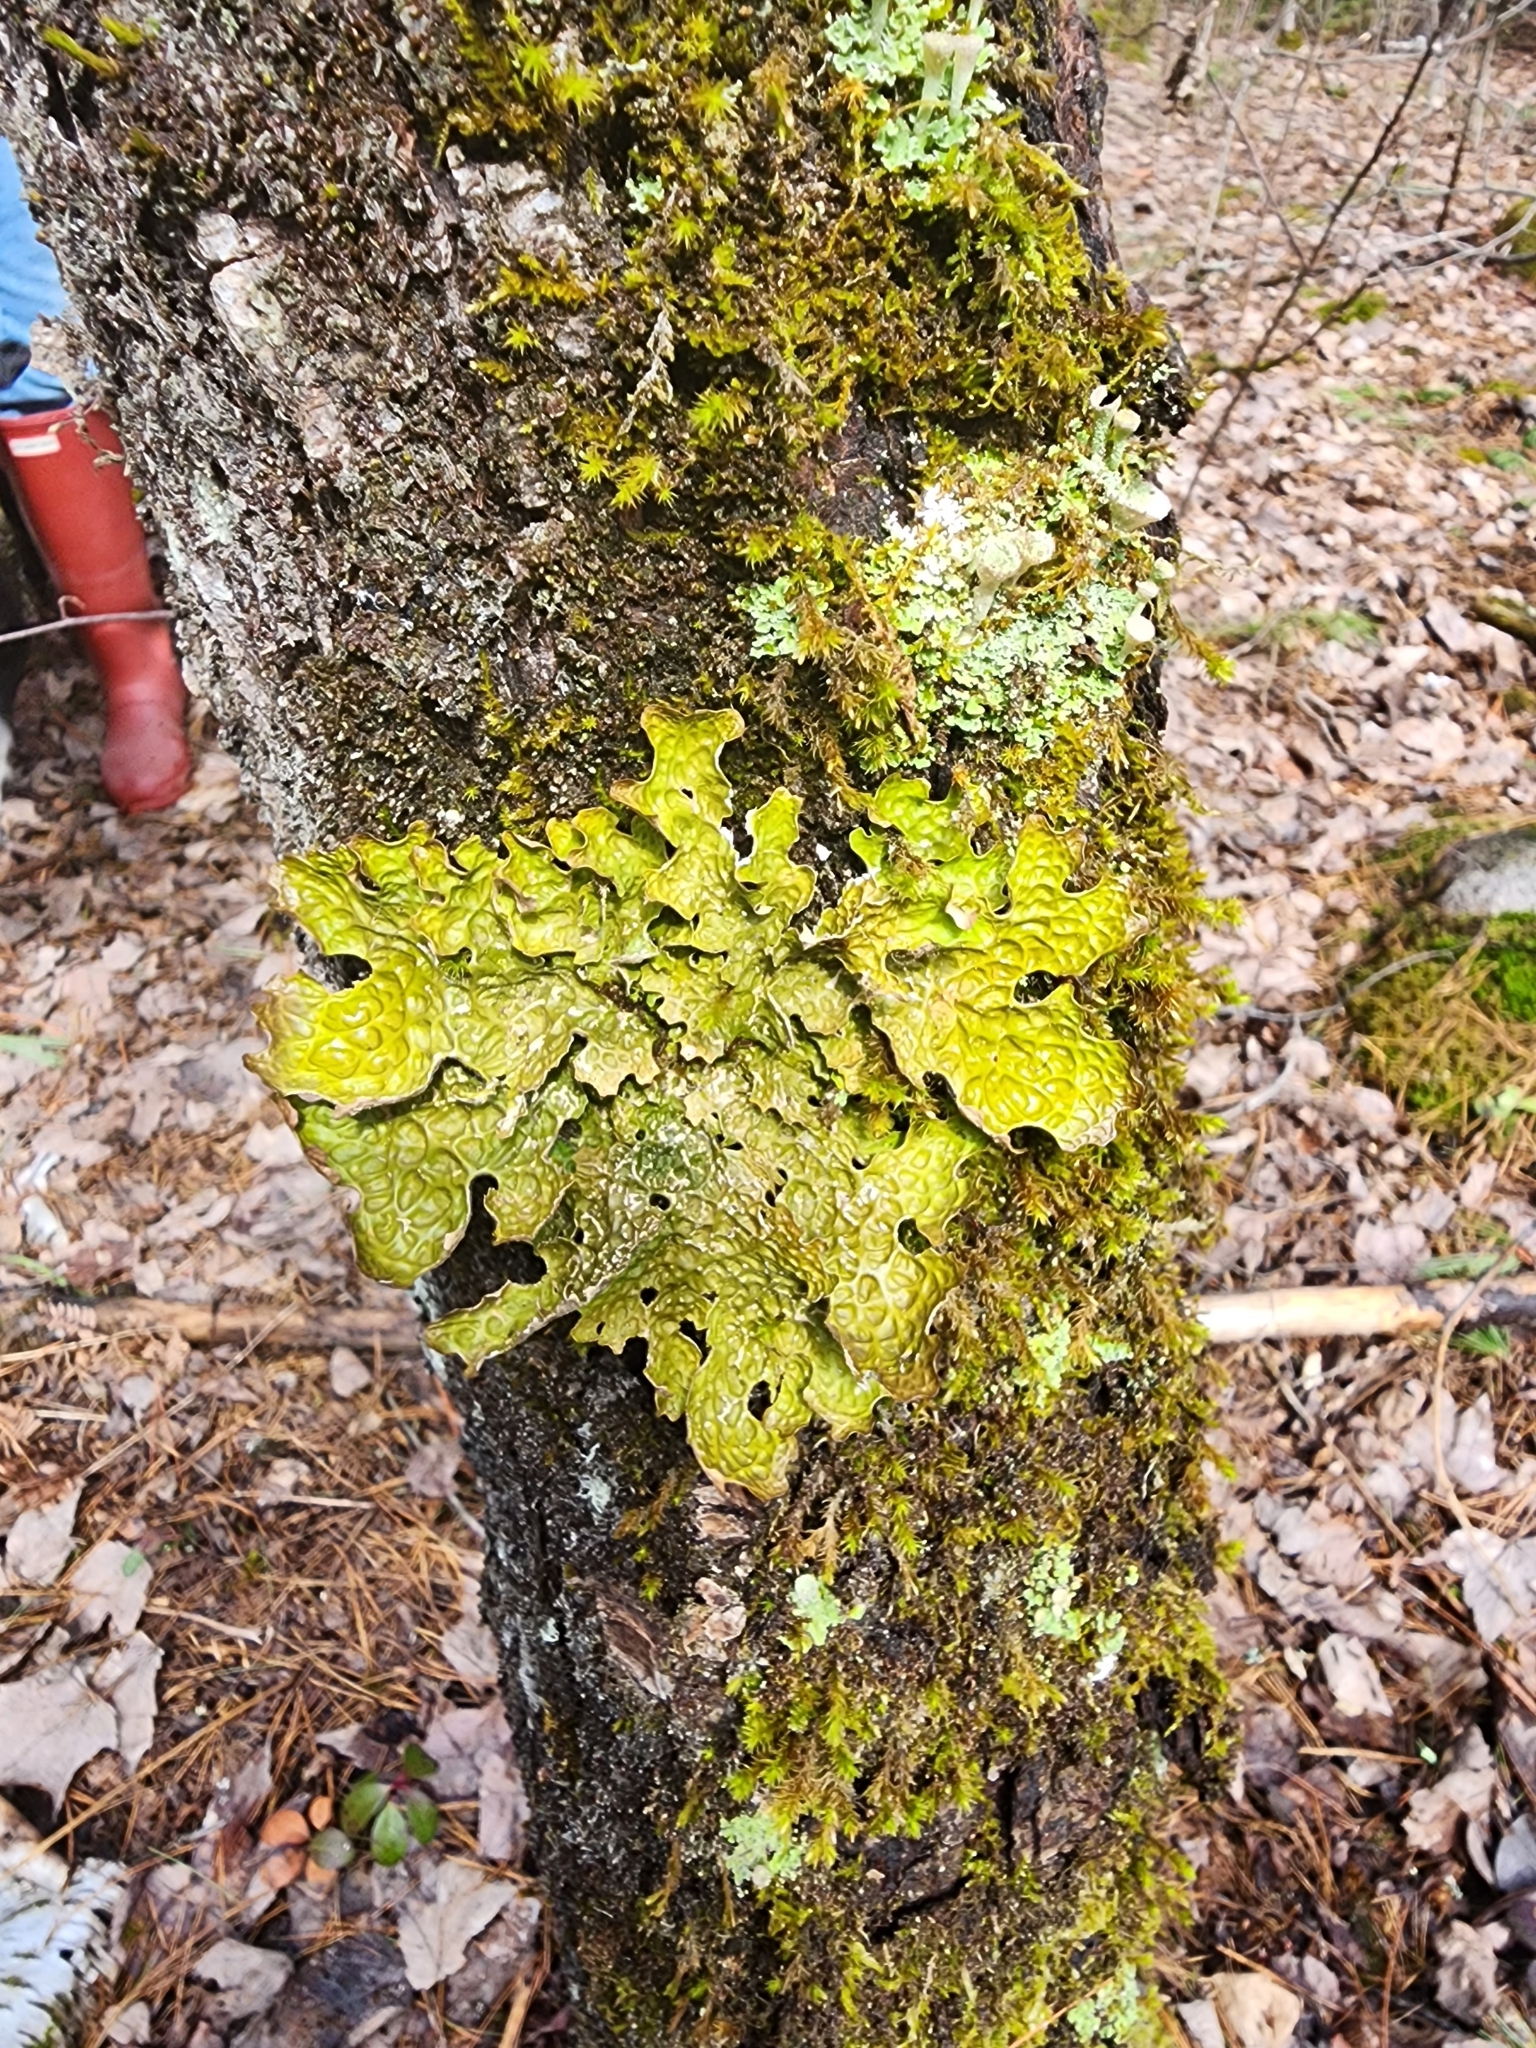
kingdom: Fungi
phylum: Ascomycota
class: Lecanoromycetes
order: Peltigerales
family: Lobariaceae
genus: Lobaria
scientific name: Lobaria pulmonaria
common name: Lungwort
